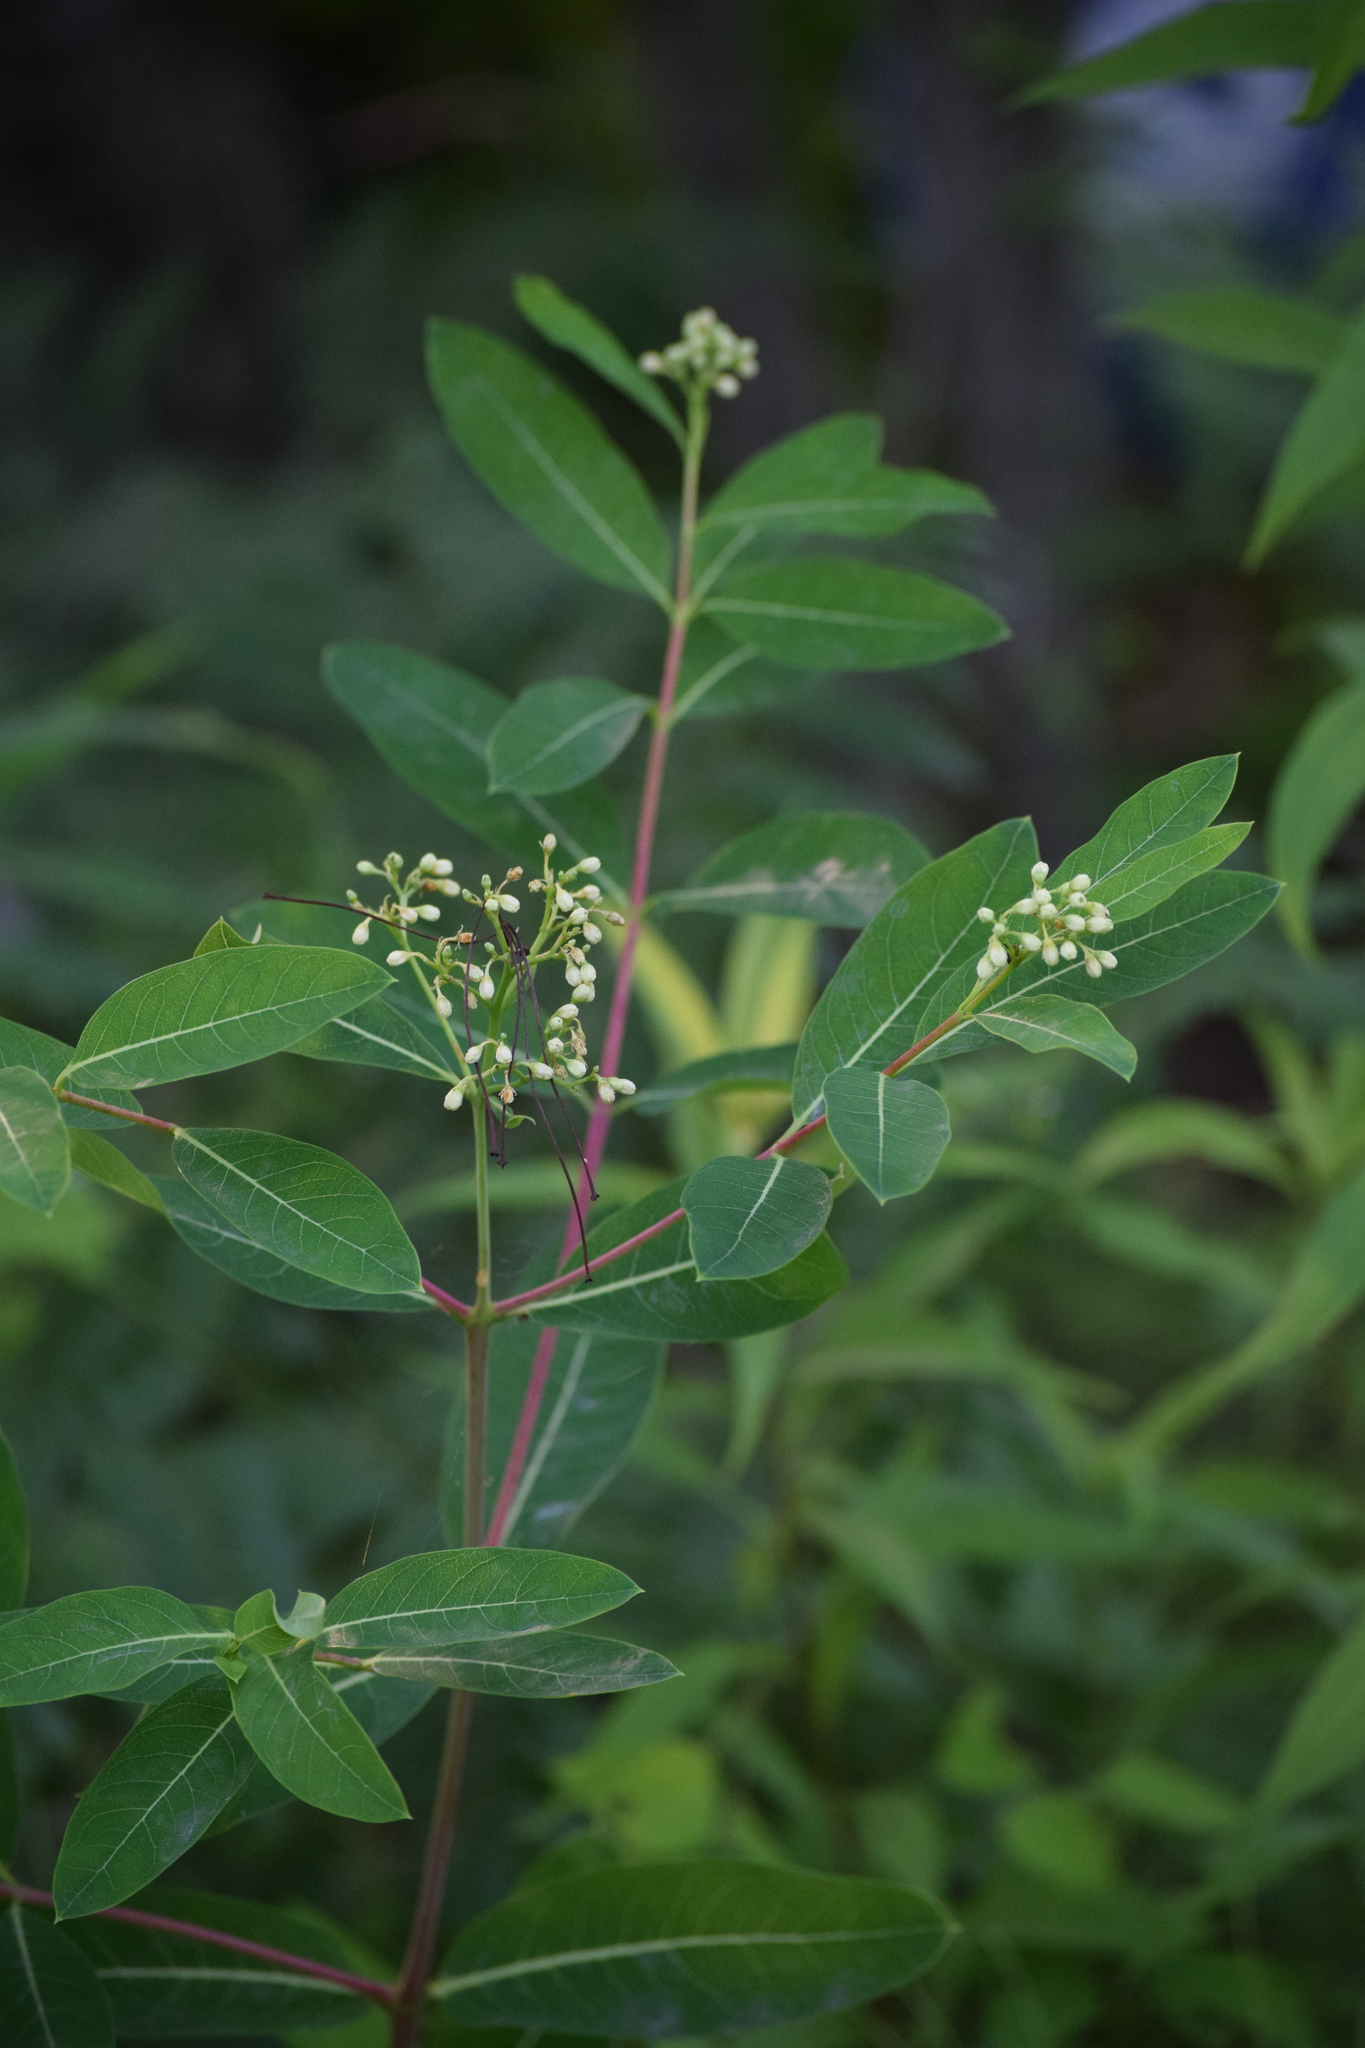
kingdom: Plantae
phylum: Tracheophyta
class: Magnoliopsida
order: Gentianales
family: Apocynaceae
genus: Apocynum
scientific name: Apocynum cannabinum
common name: Hemp dogbane
